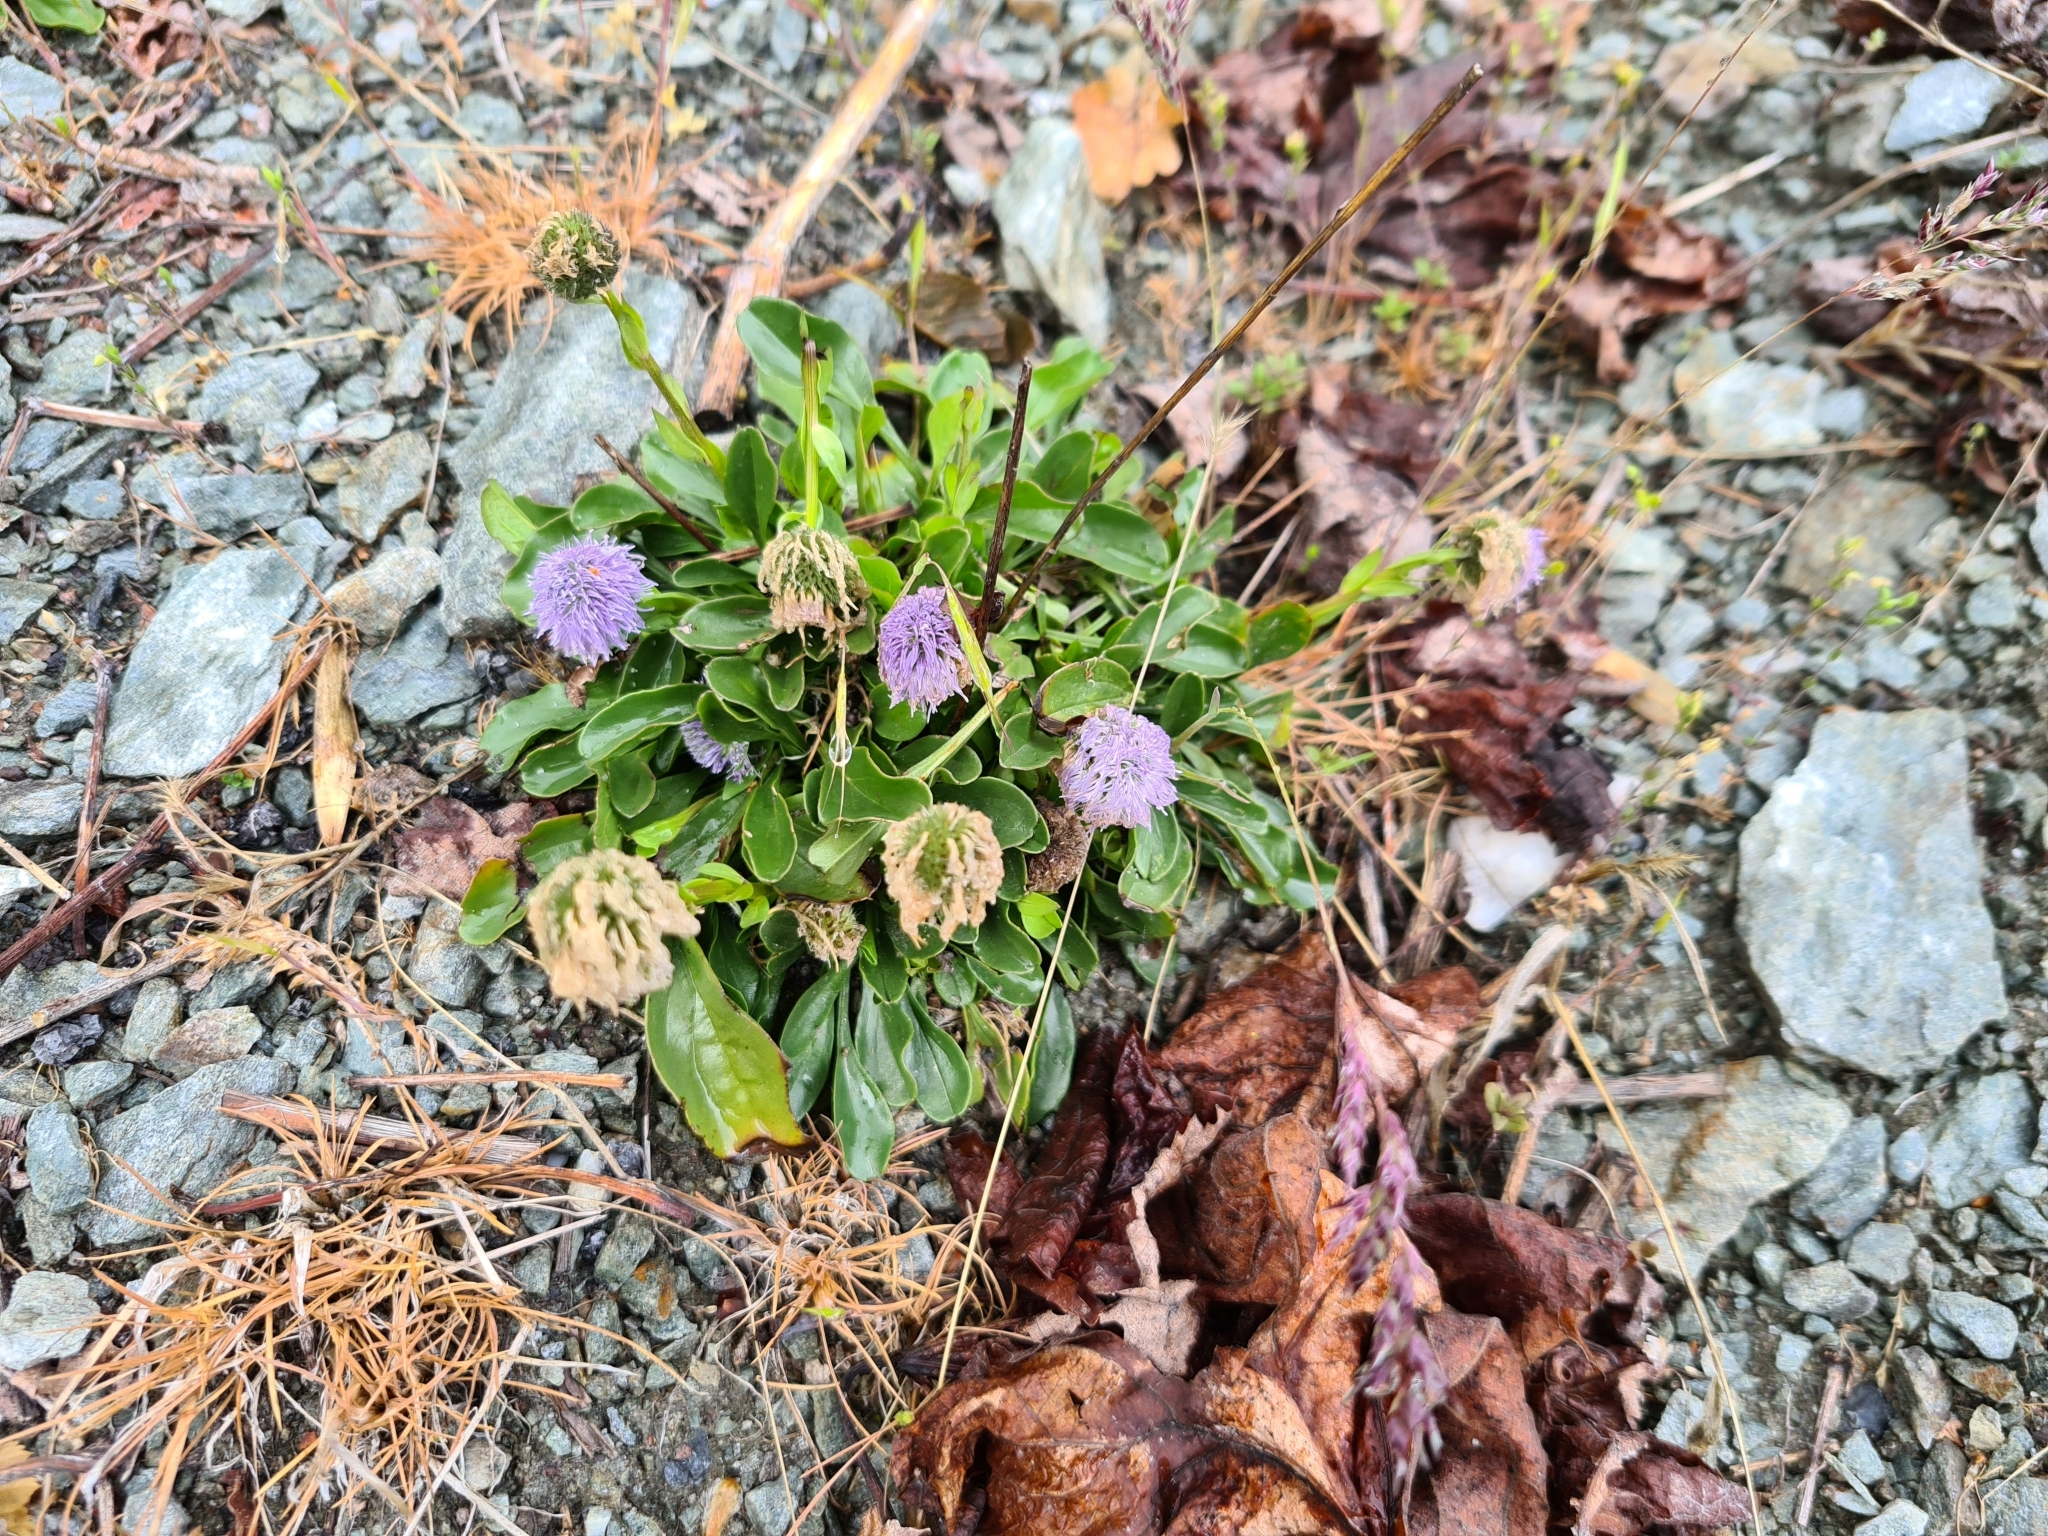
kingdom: Plantae
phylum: Tracheophyta
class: Magnoliopsida
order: Lamiales
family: Plantaginaceae
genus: Globularia
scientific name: Globularia bisnagarica
